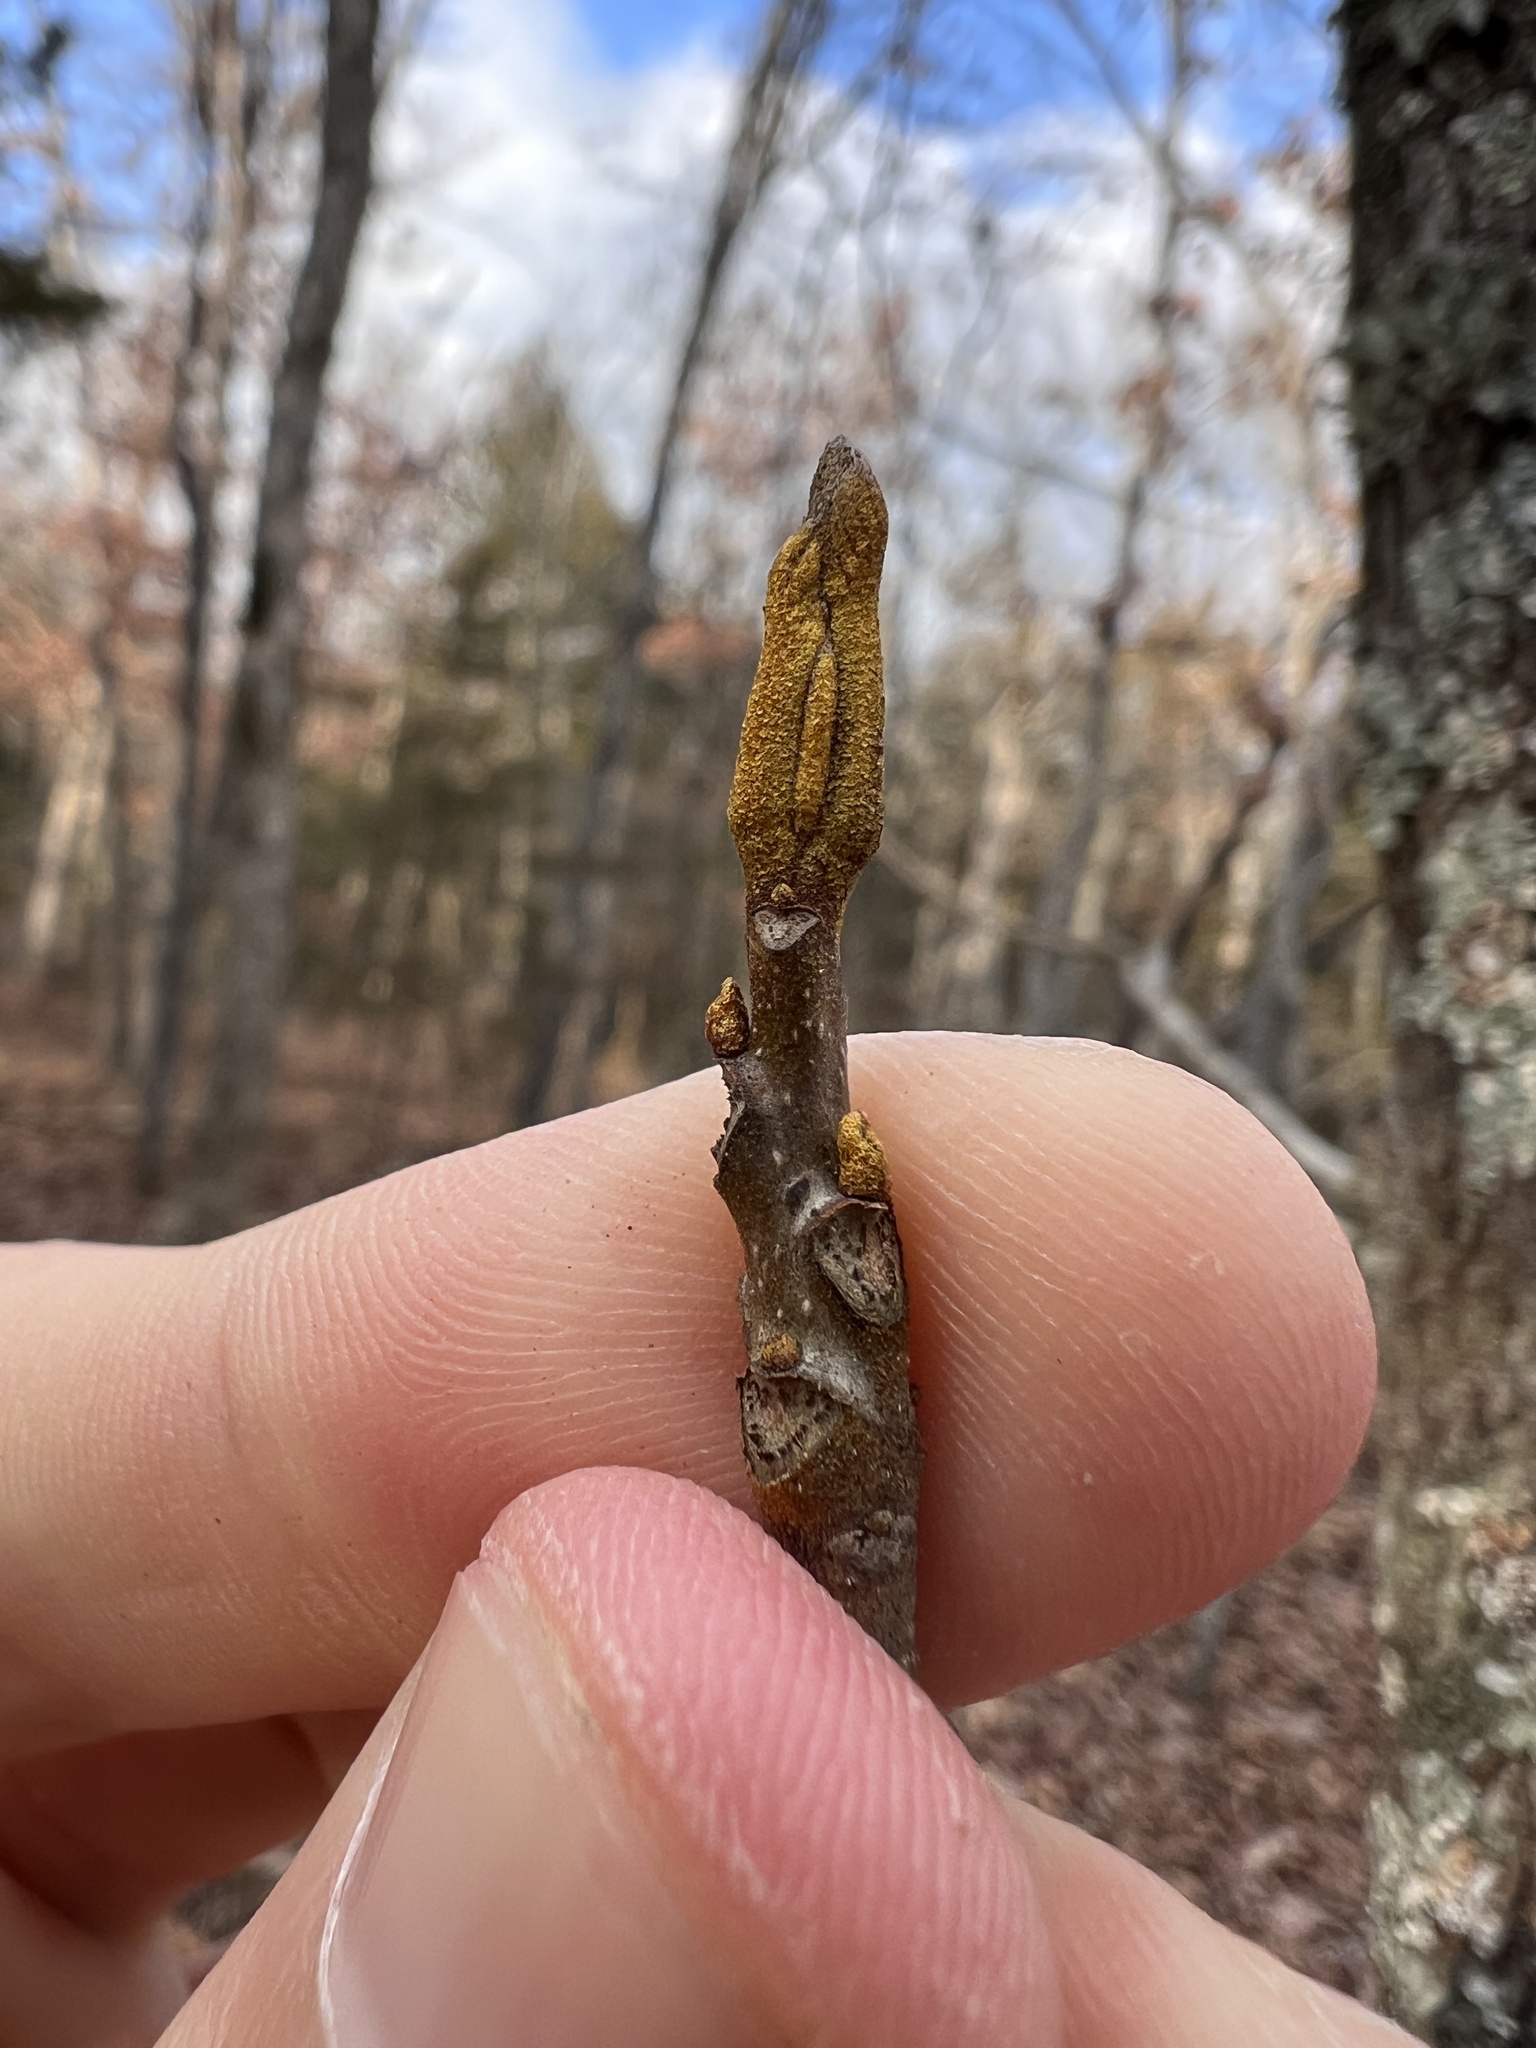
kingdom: Plantae
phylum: Tracheophyta
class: Magnoliopsida
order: Fagales
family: Juglandaceae
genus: Carya
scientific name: Carya cordiformis
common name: Bitternut hickory
